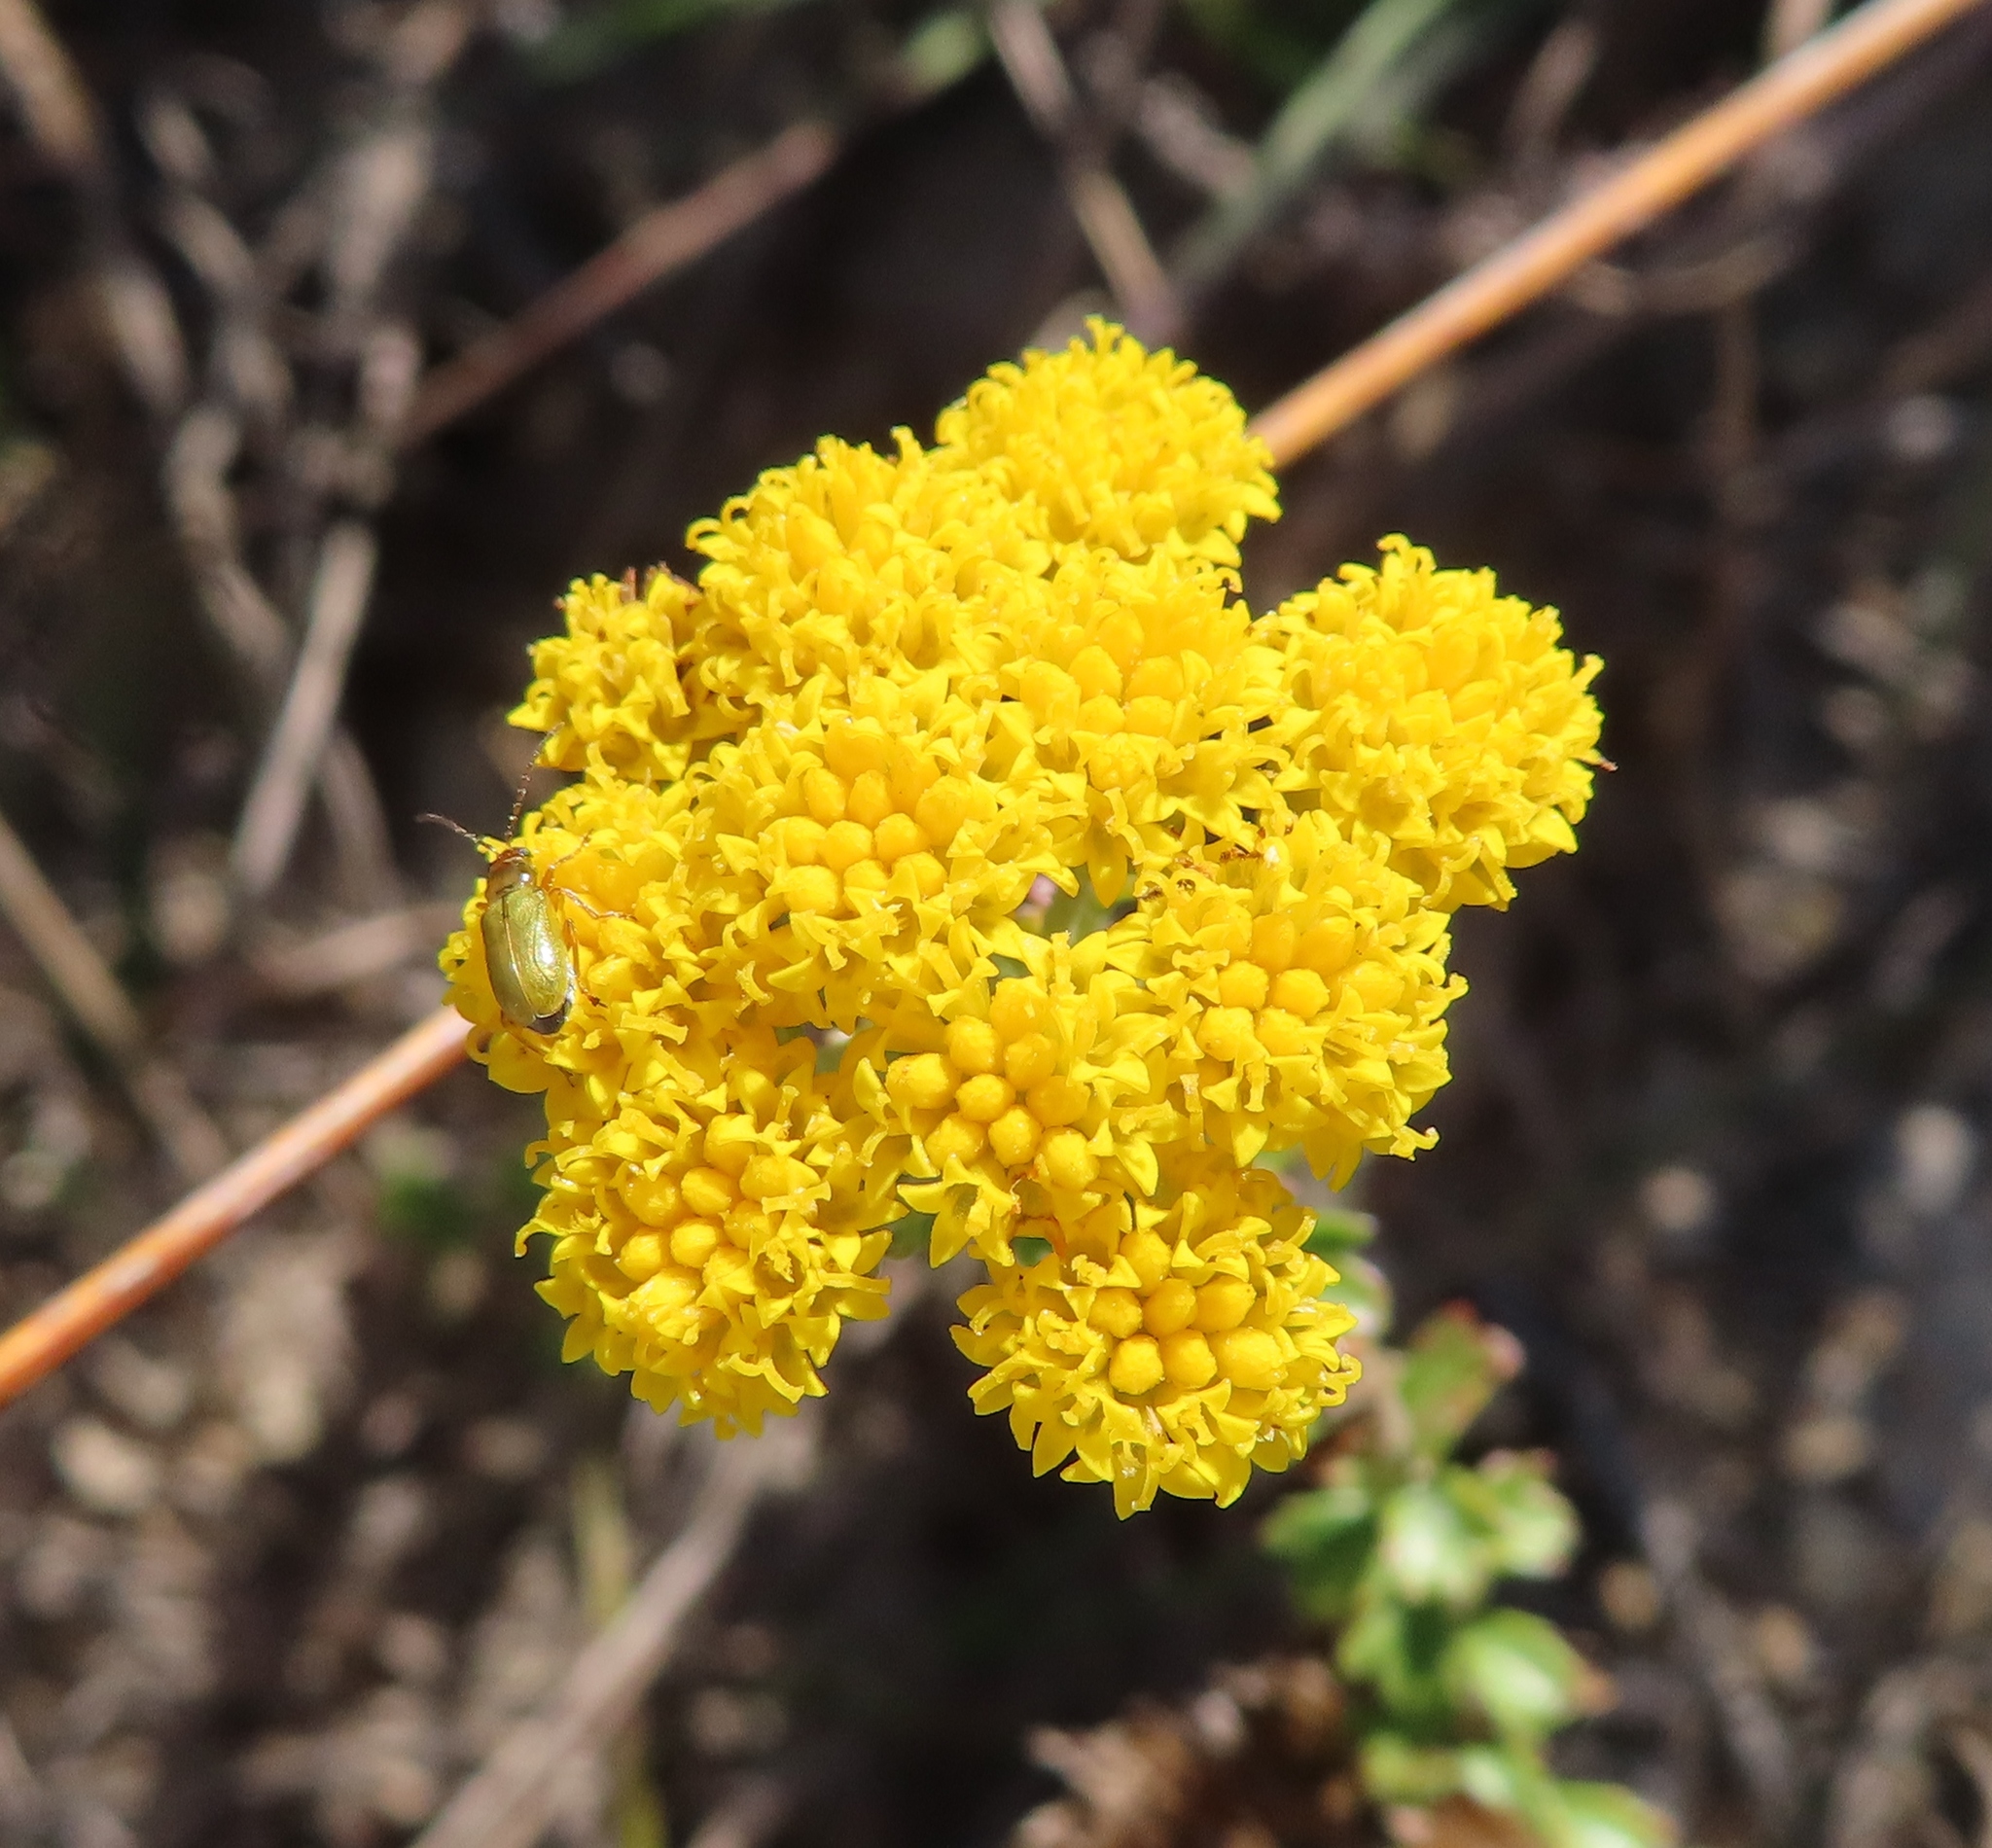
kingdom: Plantae
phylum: Tracheophyta
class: Magnoliopsida
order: Asterales
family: Asteraceae
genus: Athanasia
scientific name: Athanasia trifurcata
